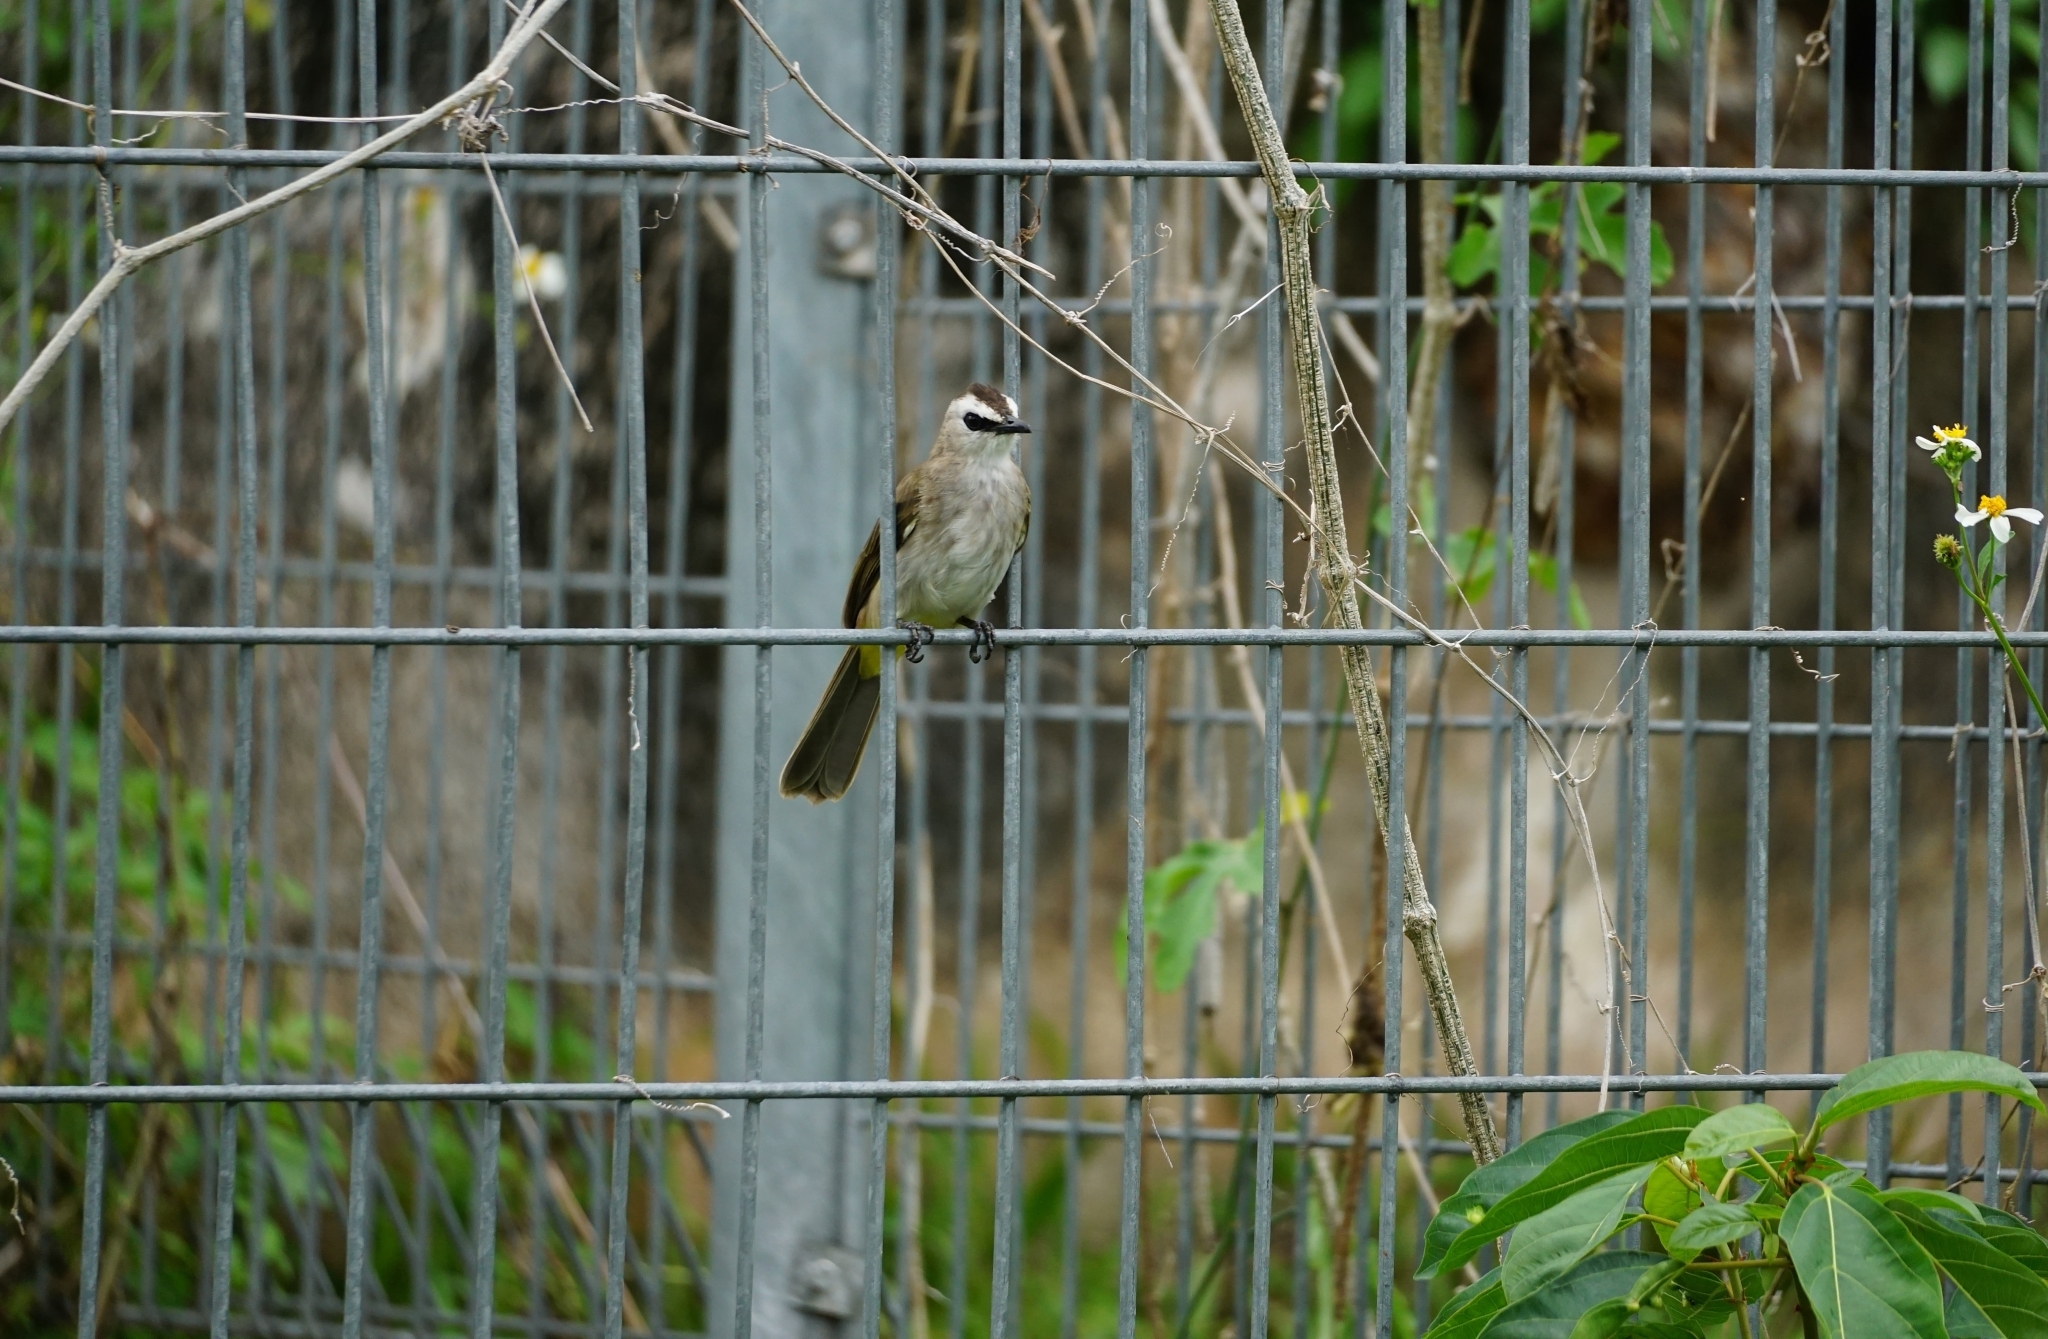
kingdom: Animalia
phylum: Chordata
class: Aves
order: Passeriformes
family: Pycnonotidae
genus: Pycnonotus
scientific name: Pycnonotus goiavier
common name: Yellow-vented bulbul
